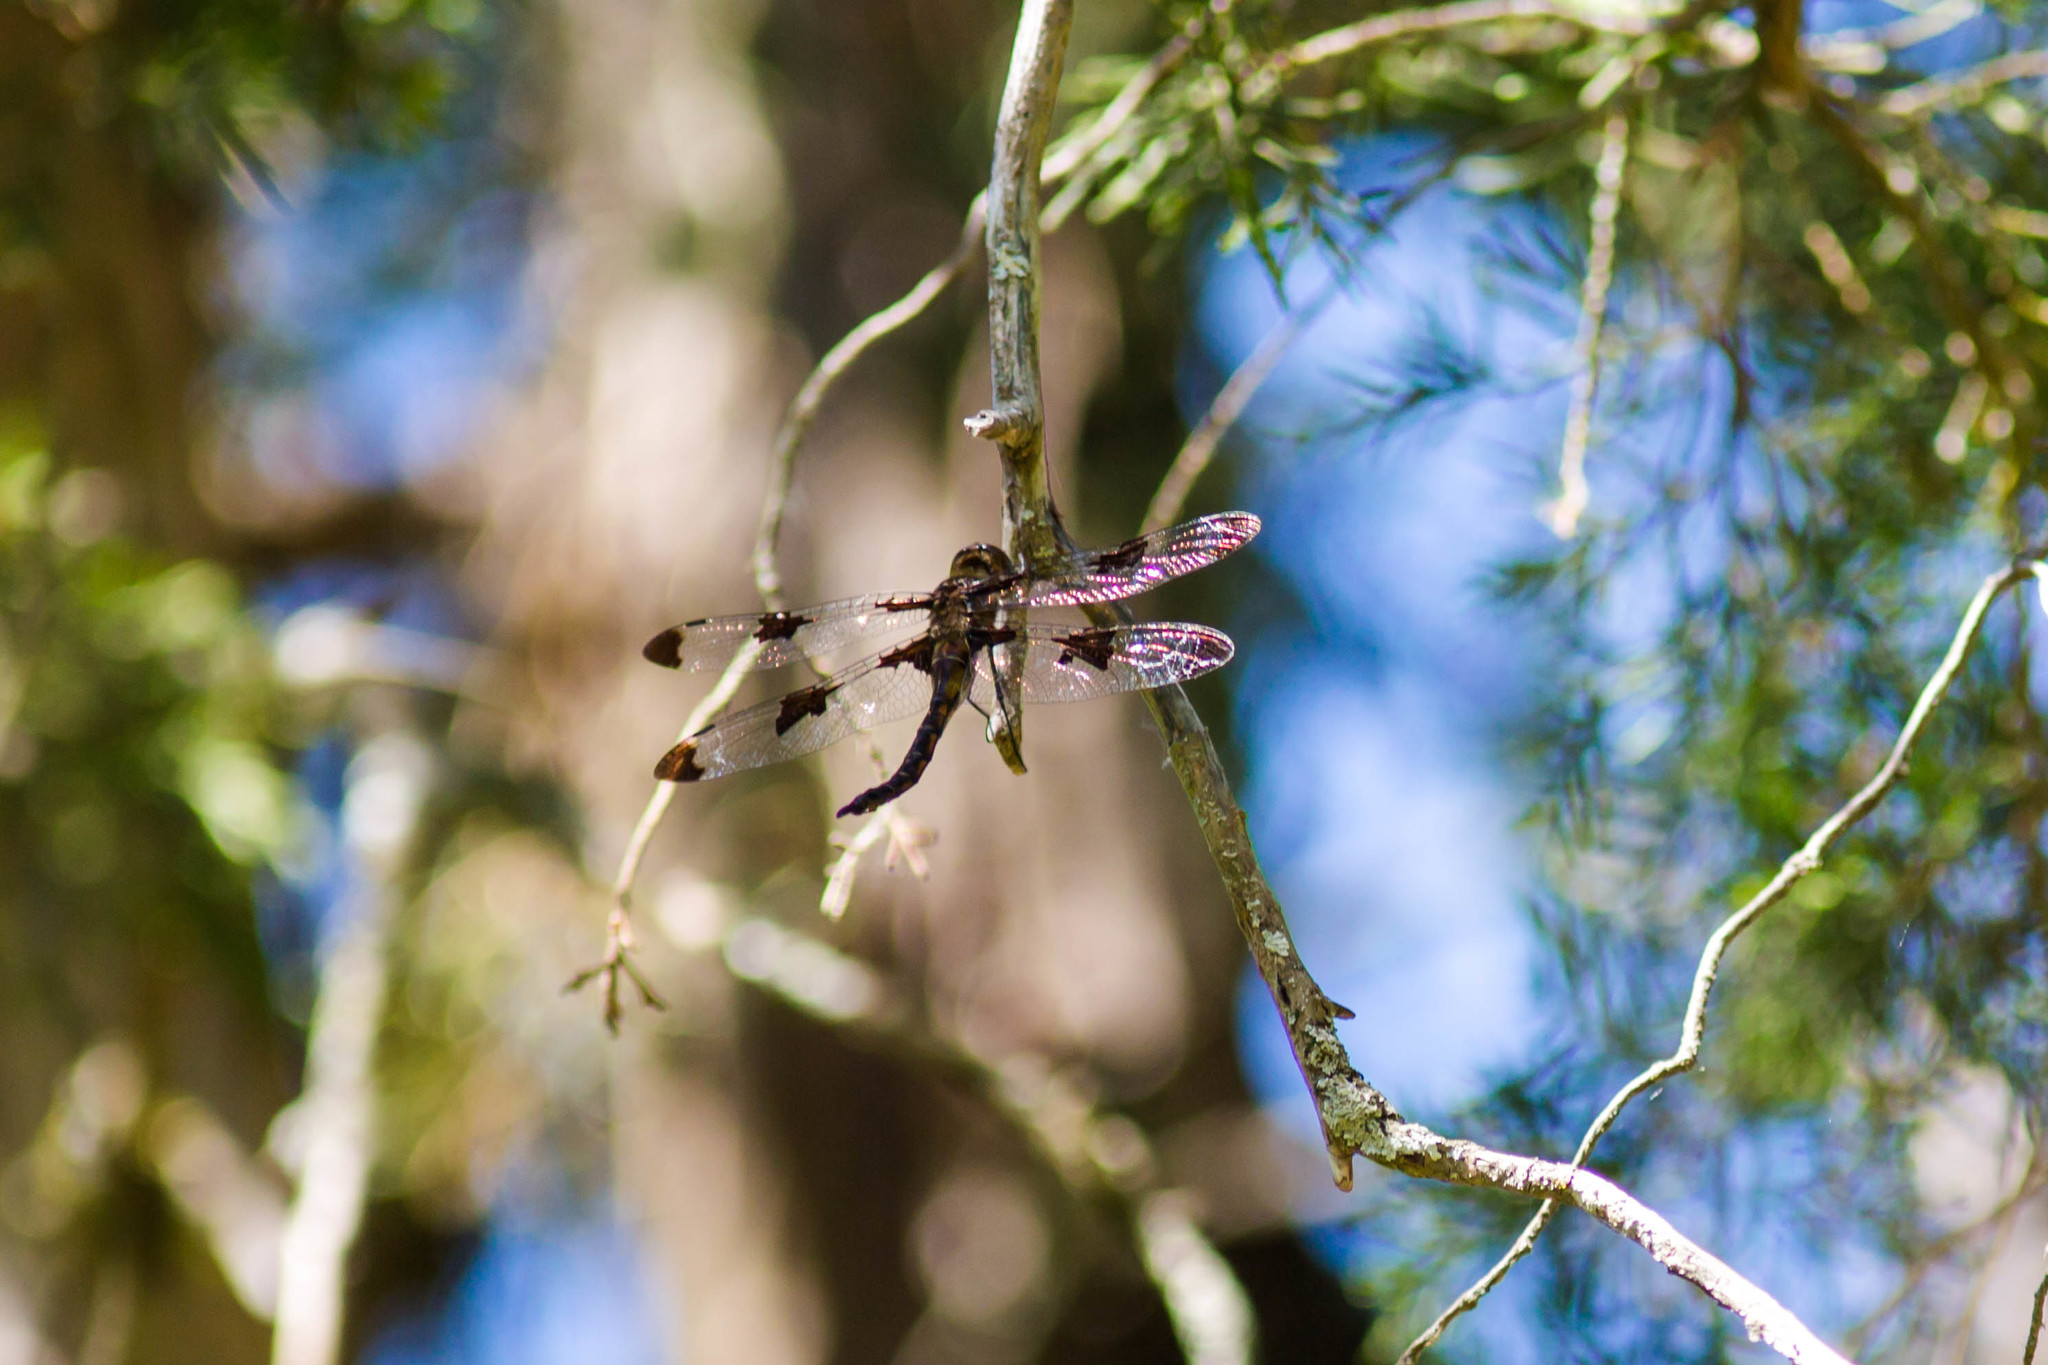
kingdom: Animalia
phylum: Arthropoda
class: Insecta
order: Odonata
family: Corduliidae
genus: Epitheca
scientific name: Epitheca princeps
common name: Prince baskettail
